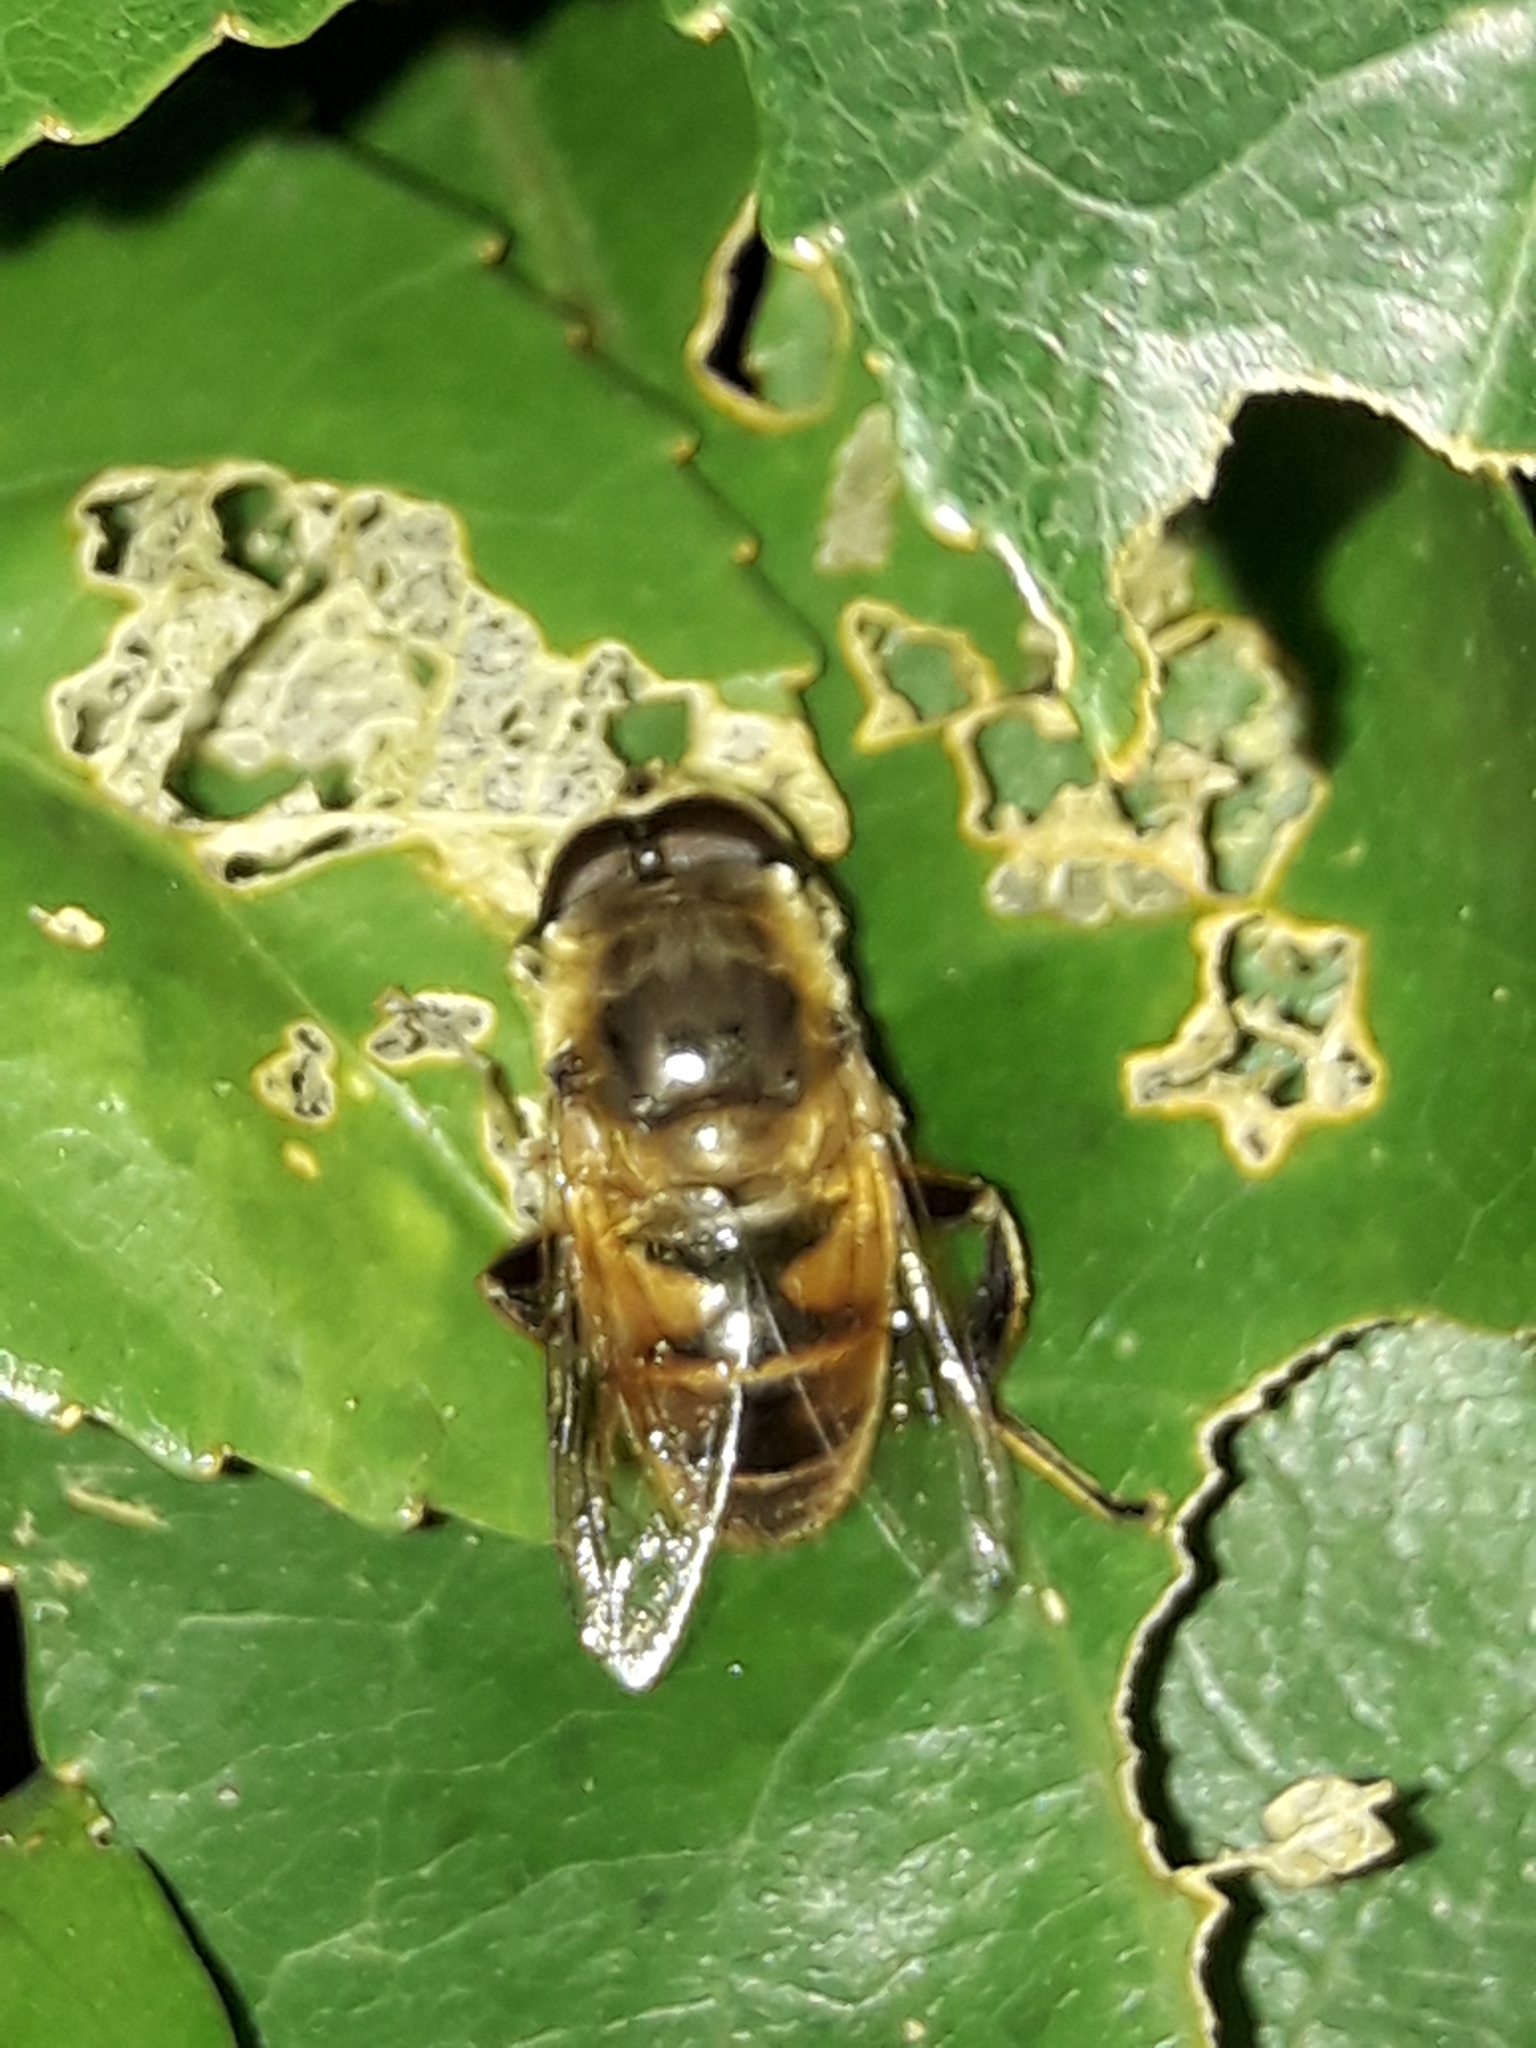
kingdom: Animalia
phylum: Arthropoda
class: Insecta
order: Diptera
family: Syrphidae
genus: Eristalis
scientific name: Eristalis tenax
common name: Drone fly
